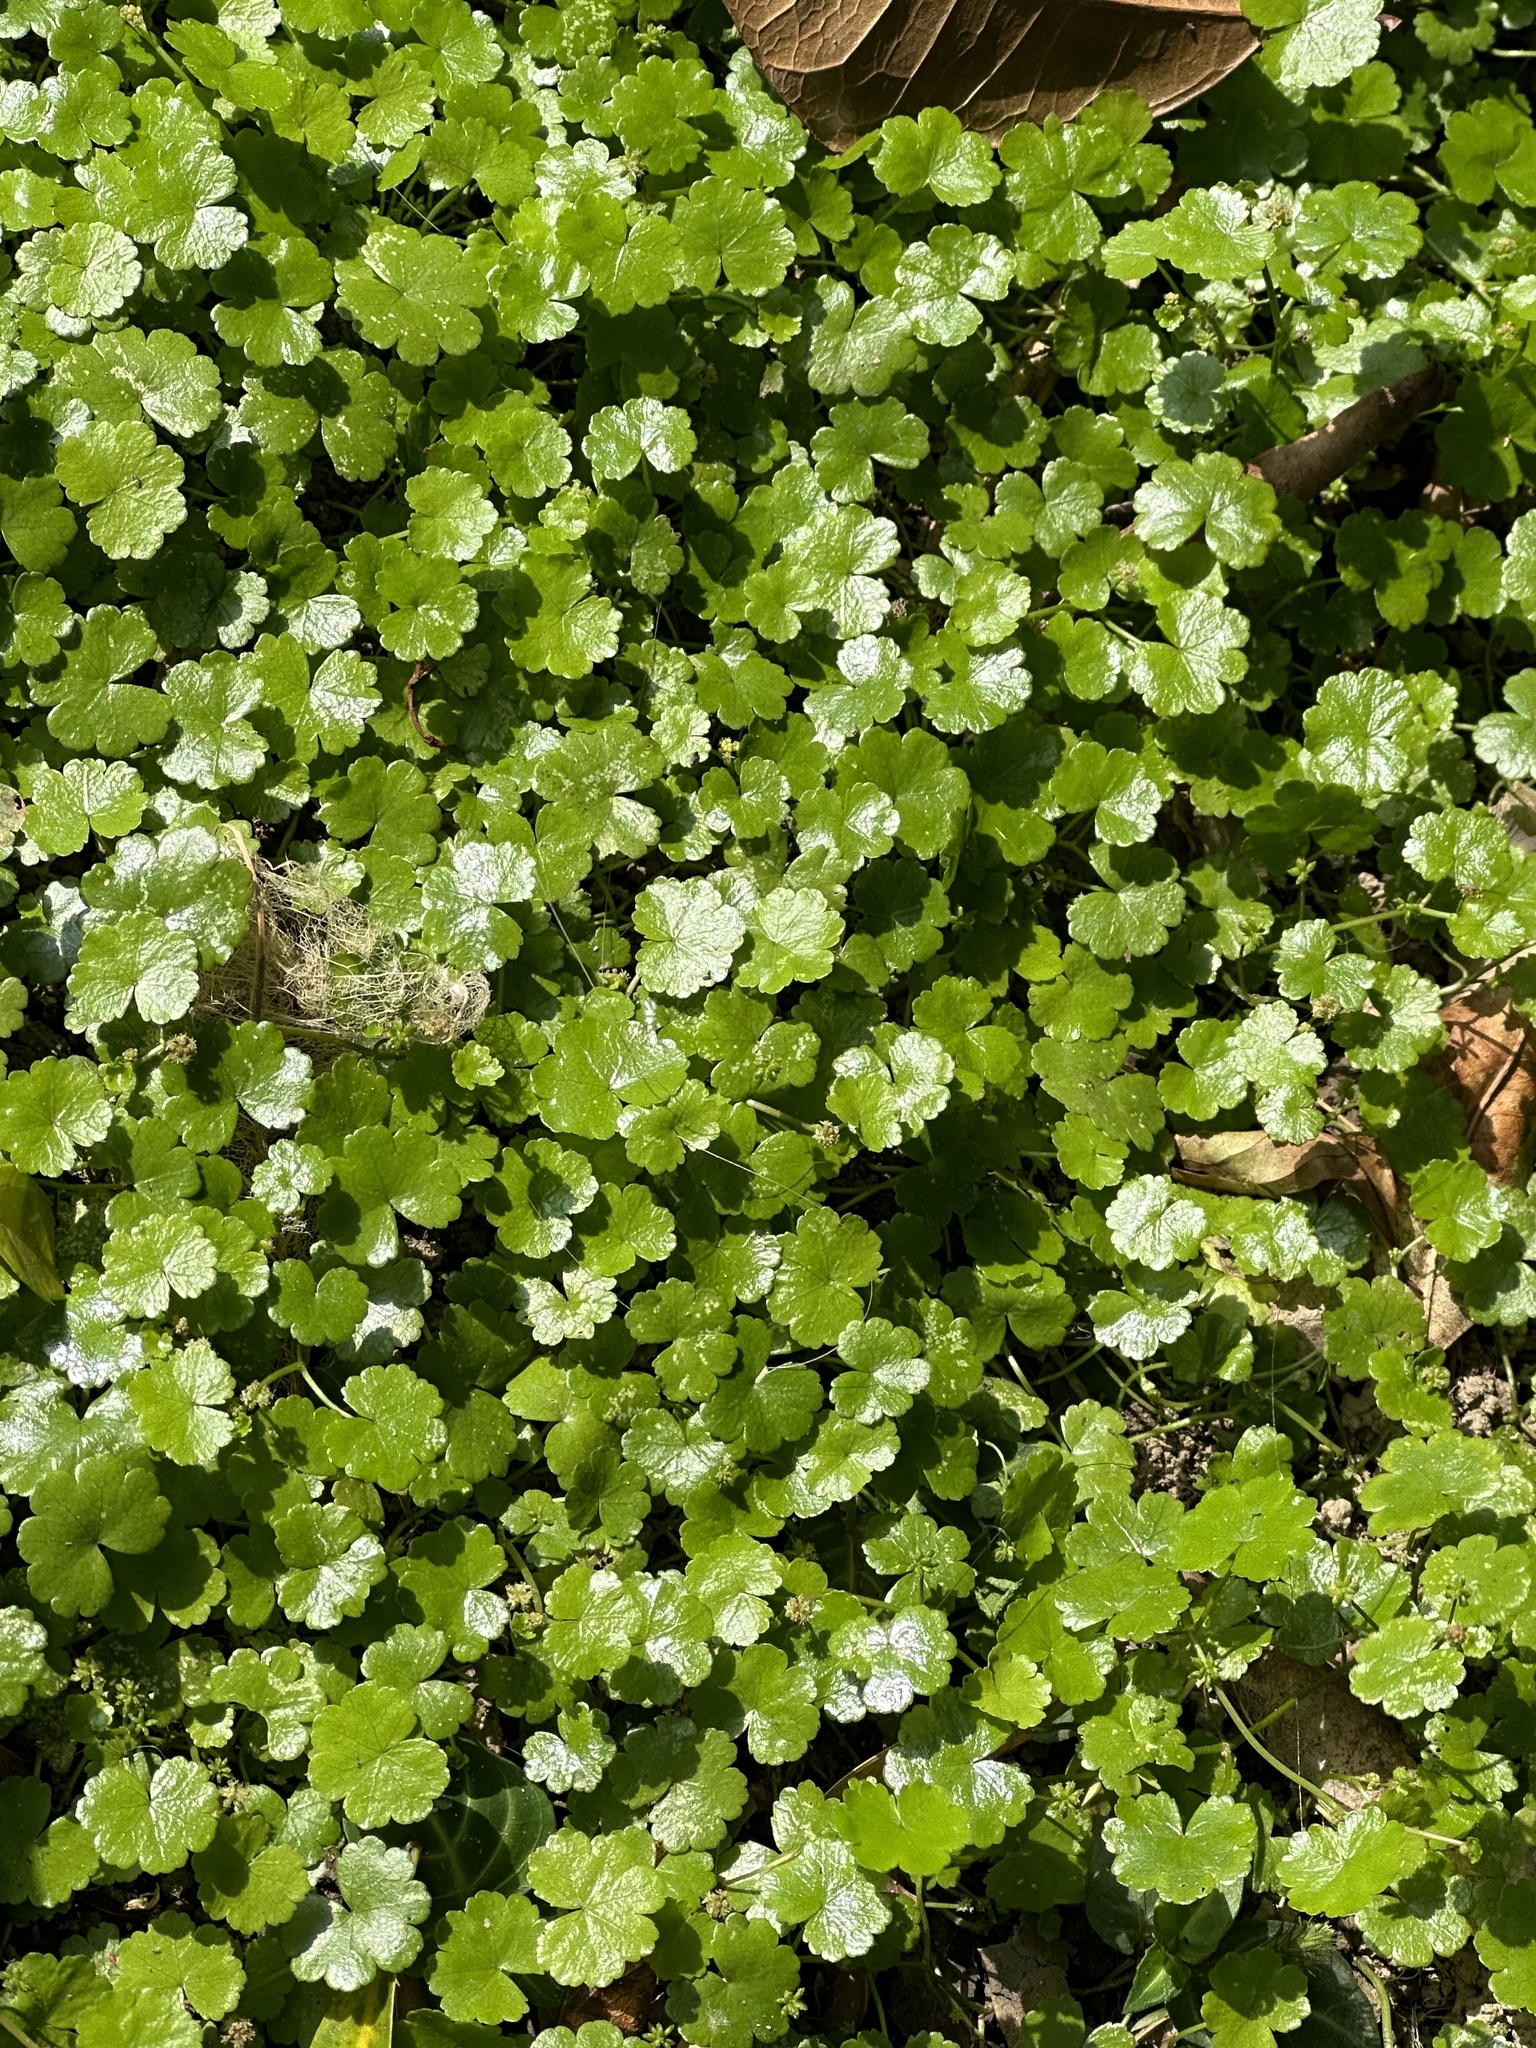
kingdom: Plantae
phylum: Tracheophyta
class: Magnoliopsida
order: Apiales
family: Araliaceae
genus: Hydrocotyle
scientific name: Hydrocotyle sibthorpioides
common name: Lawn marshpennywort
